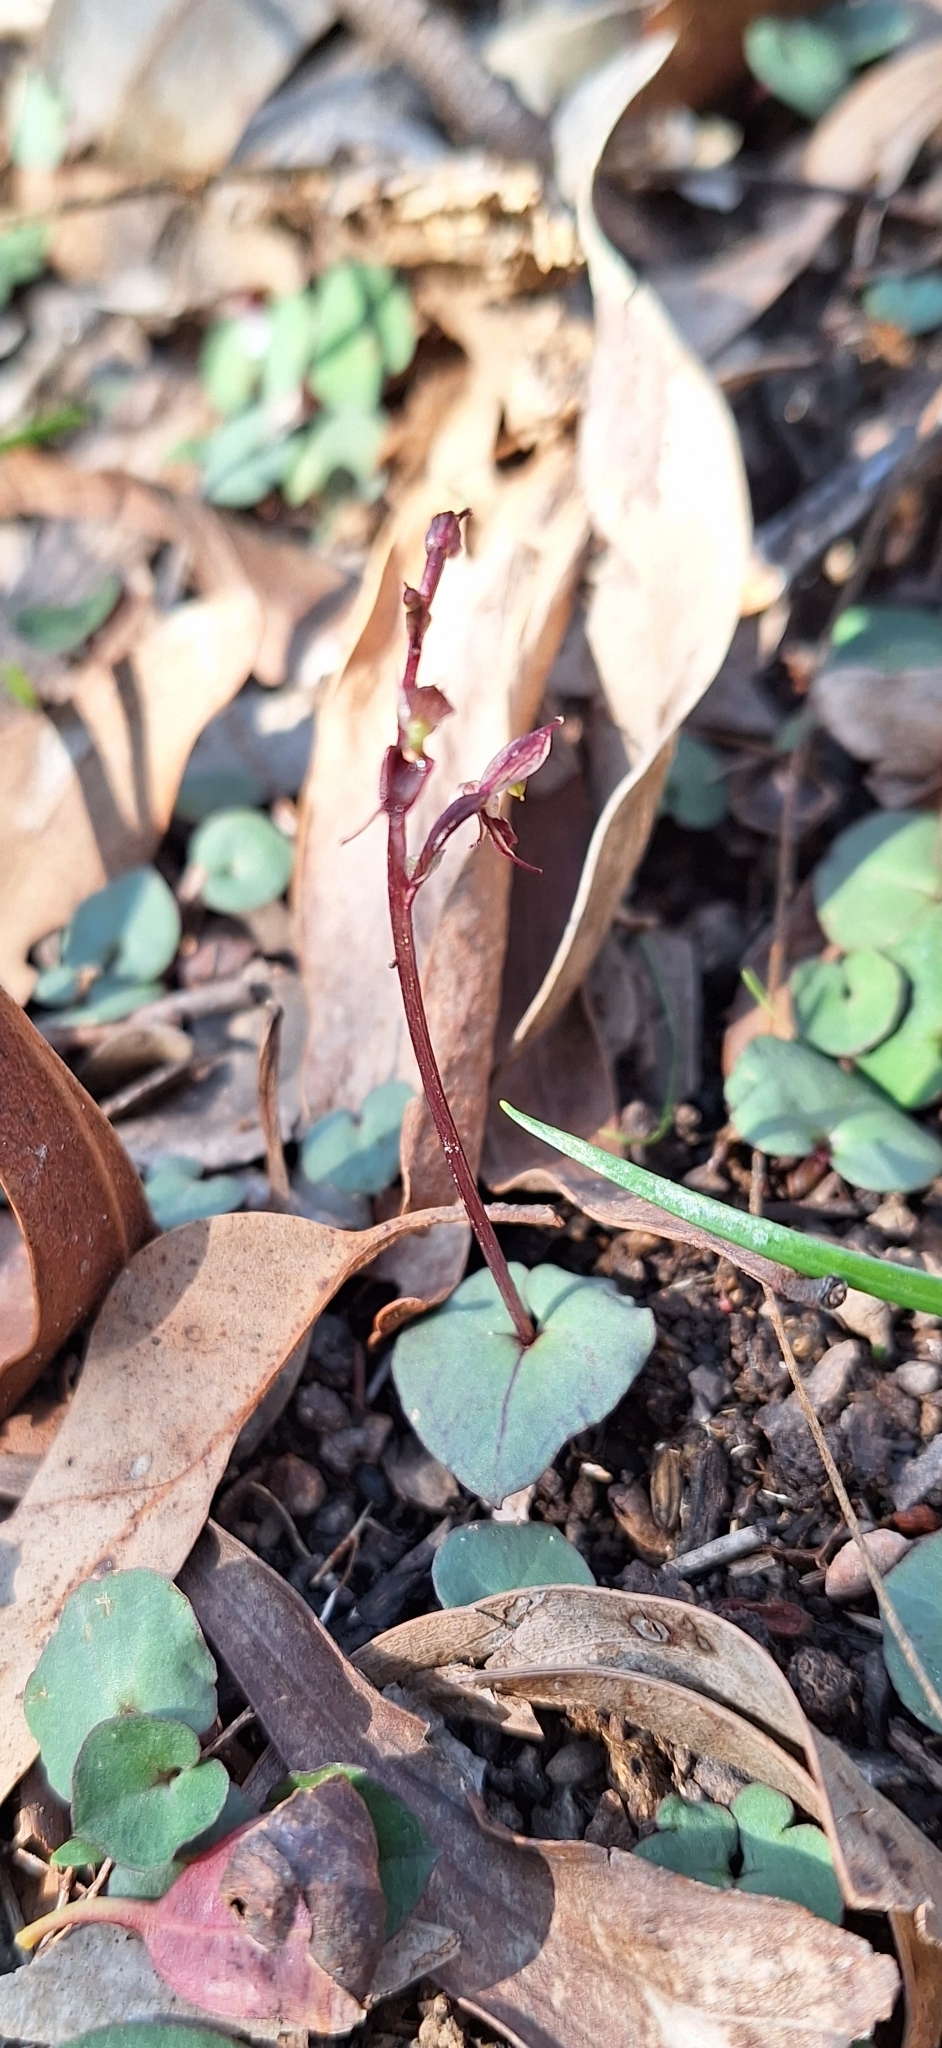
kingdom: Plantae
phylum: Tracheophyta
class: Liliopsida
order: Asparagales
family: Orchidaceae
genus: Acianthus
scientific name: Acianthus pusillus
